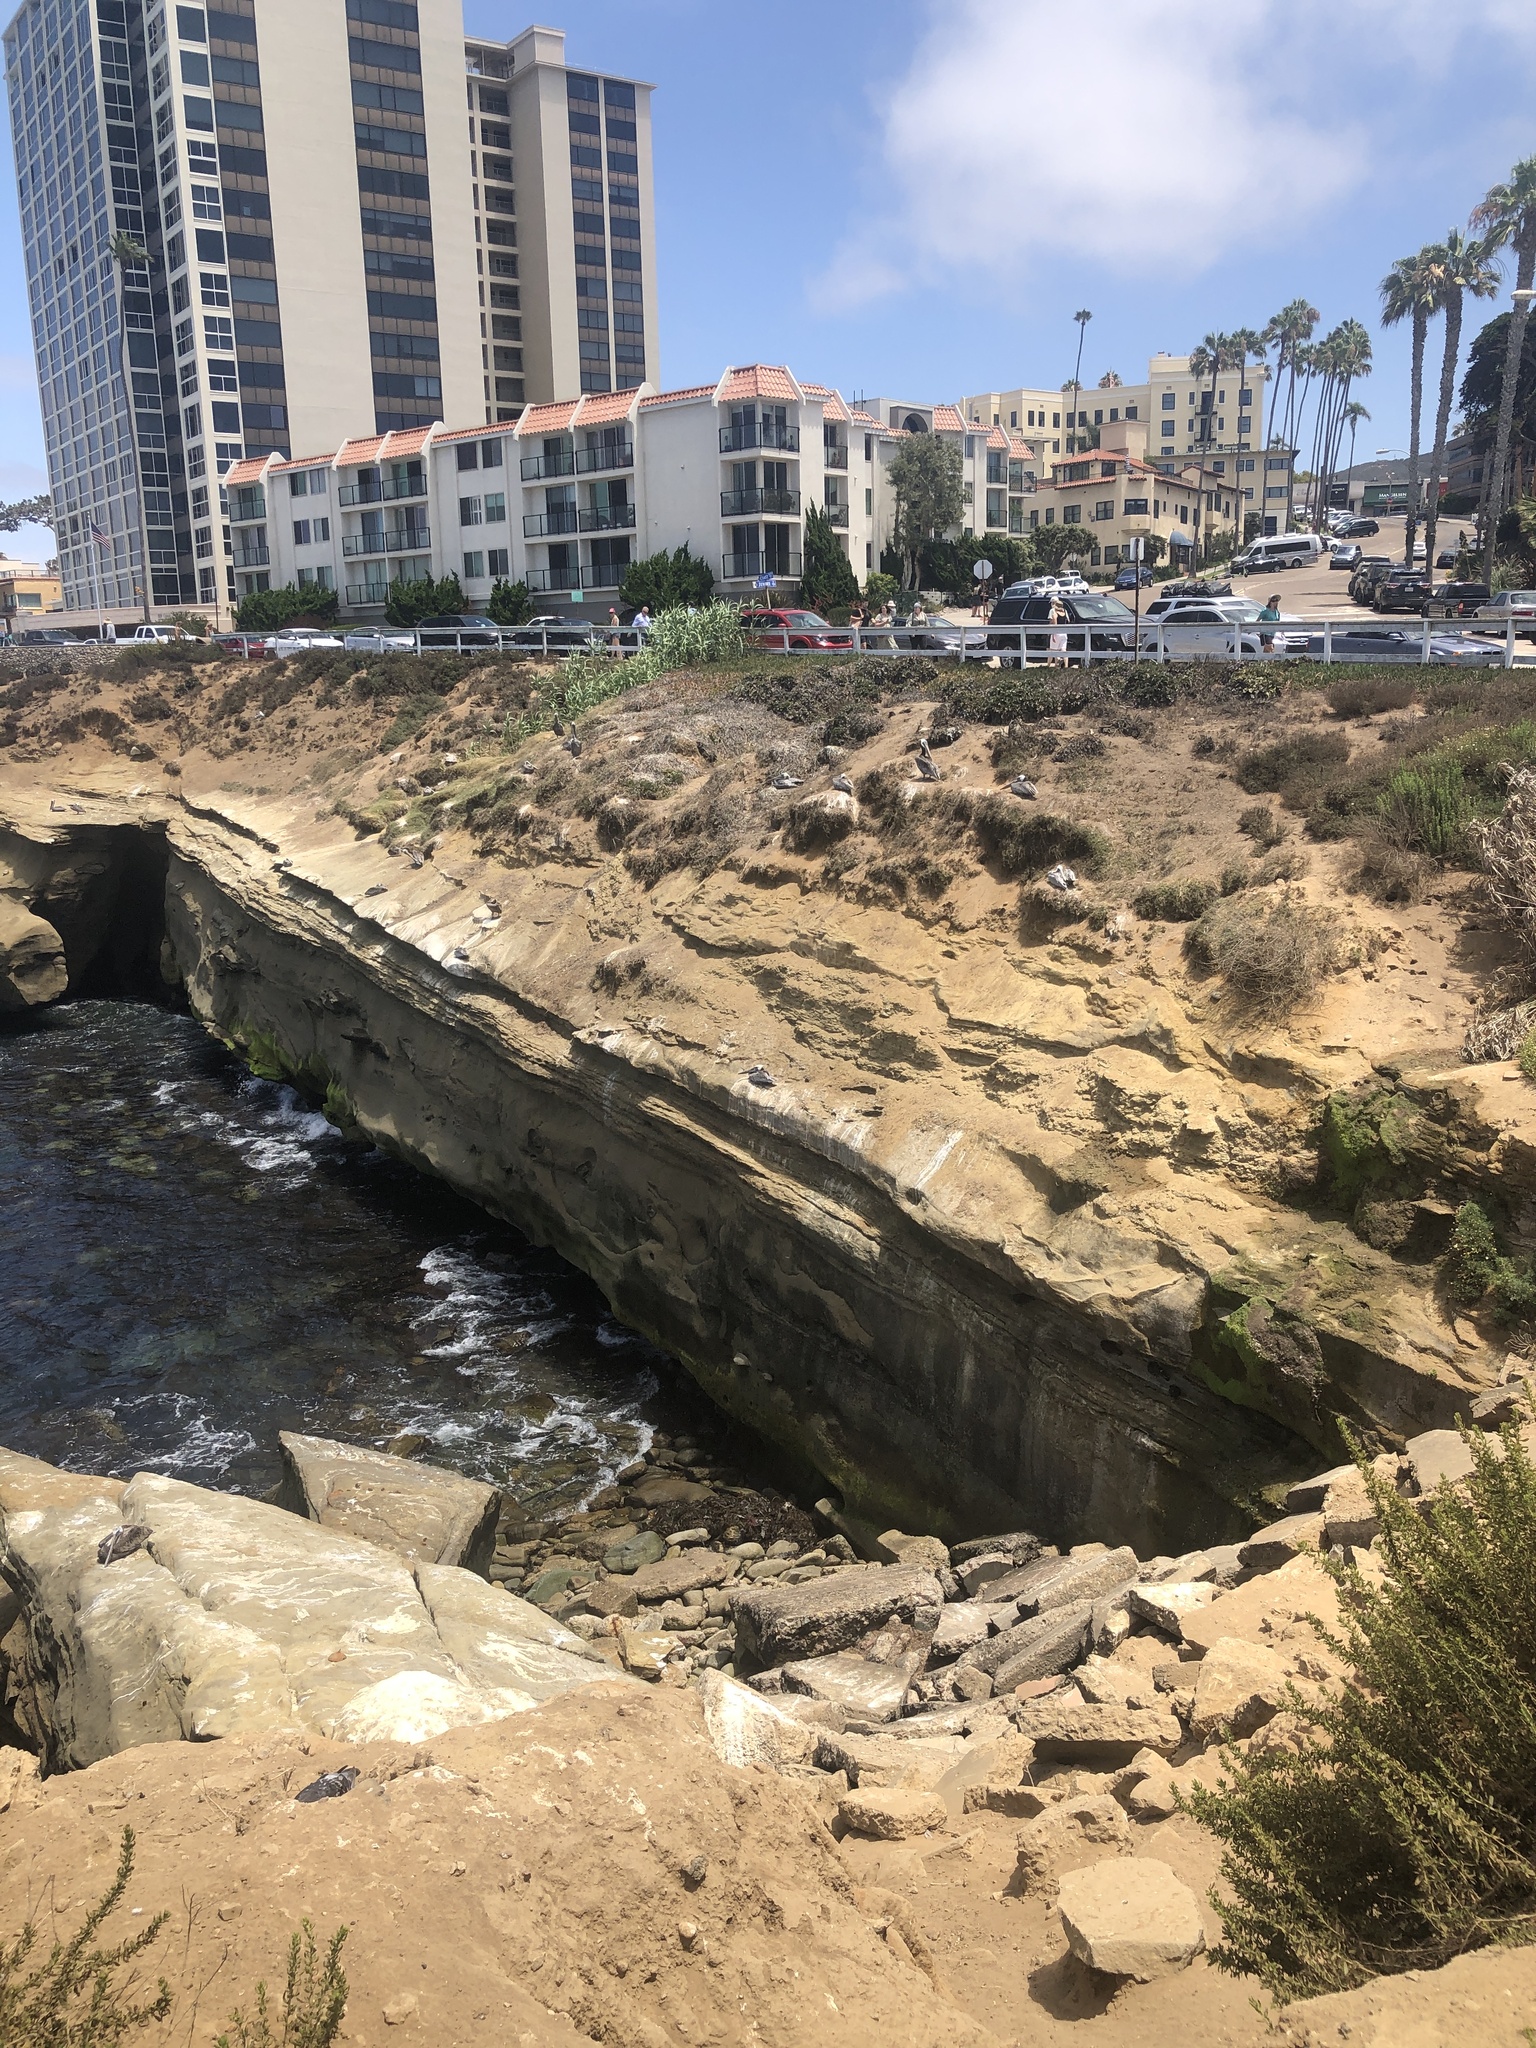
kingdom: Animalia
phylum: Chordata
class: Aves
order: Pelecaniformes
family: Pelecanidae
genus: Pelecanus
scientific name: Pelecanus occidentalis
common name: Brown pelican
